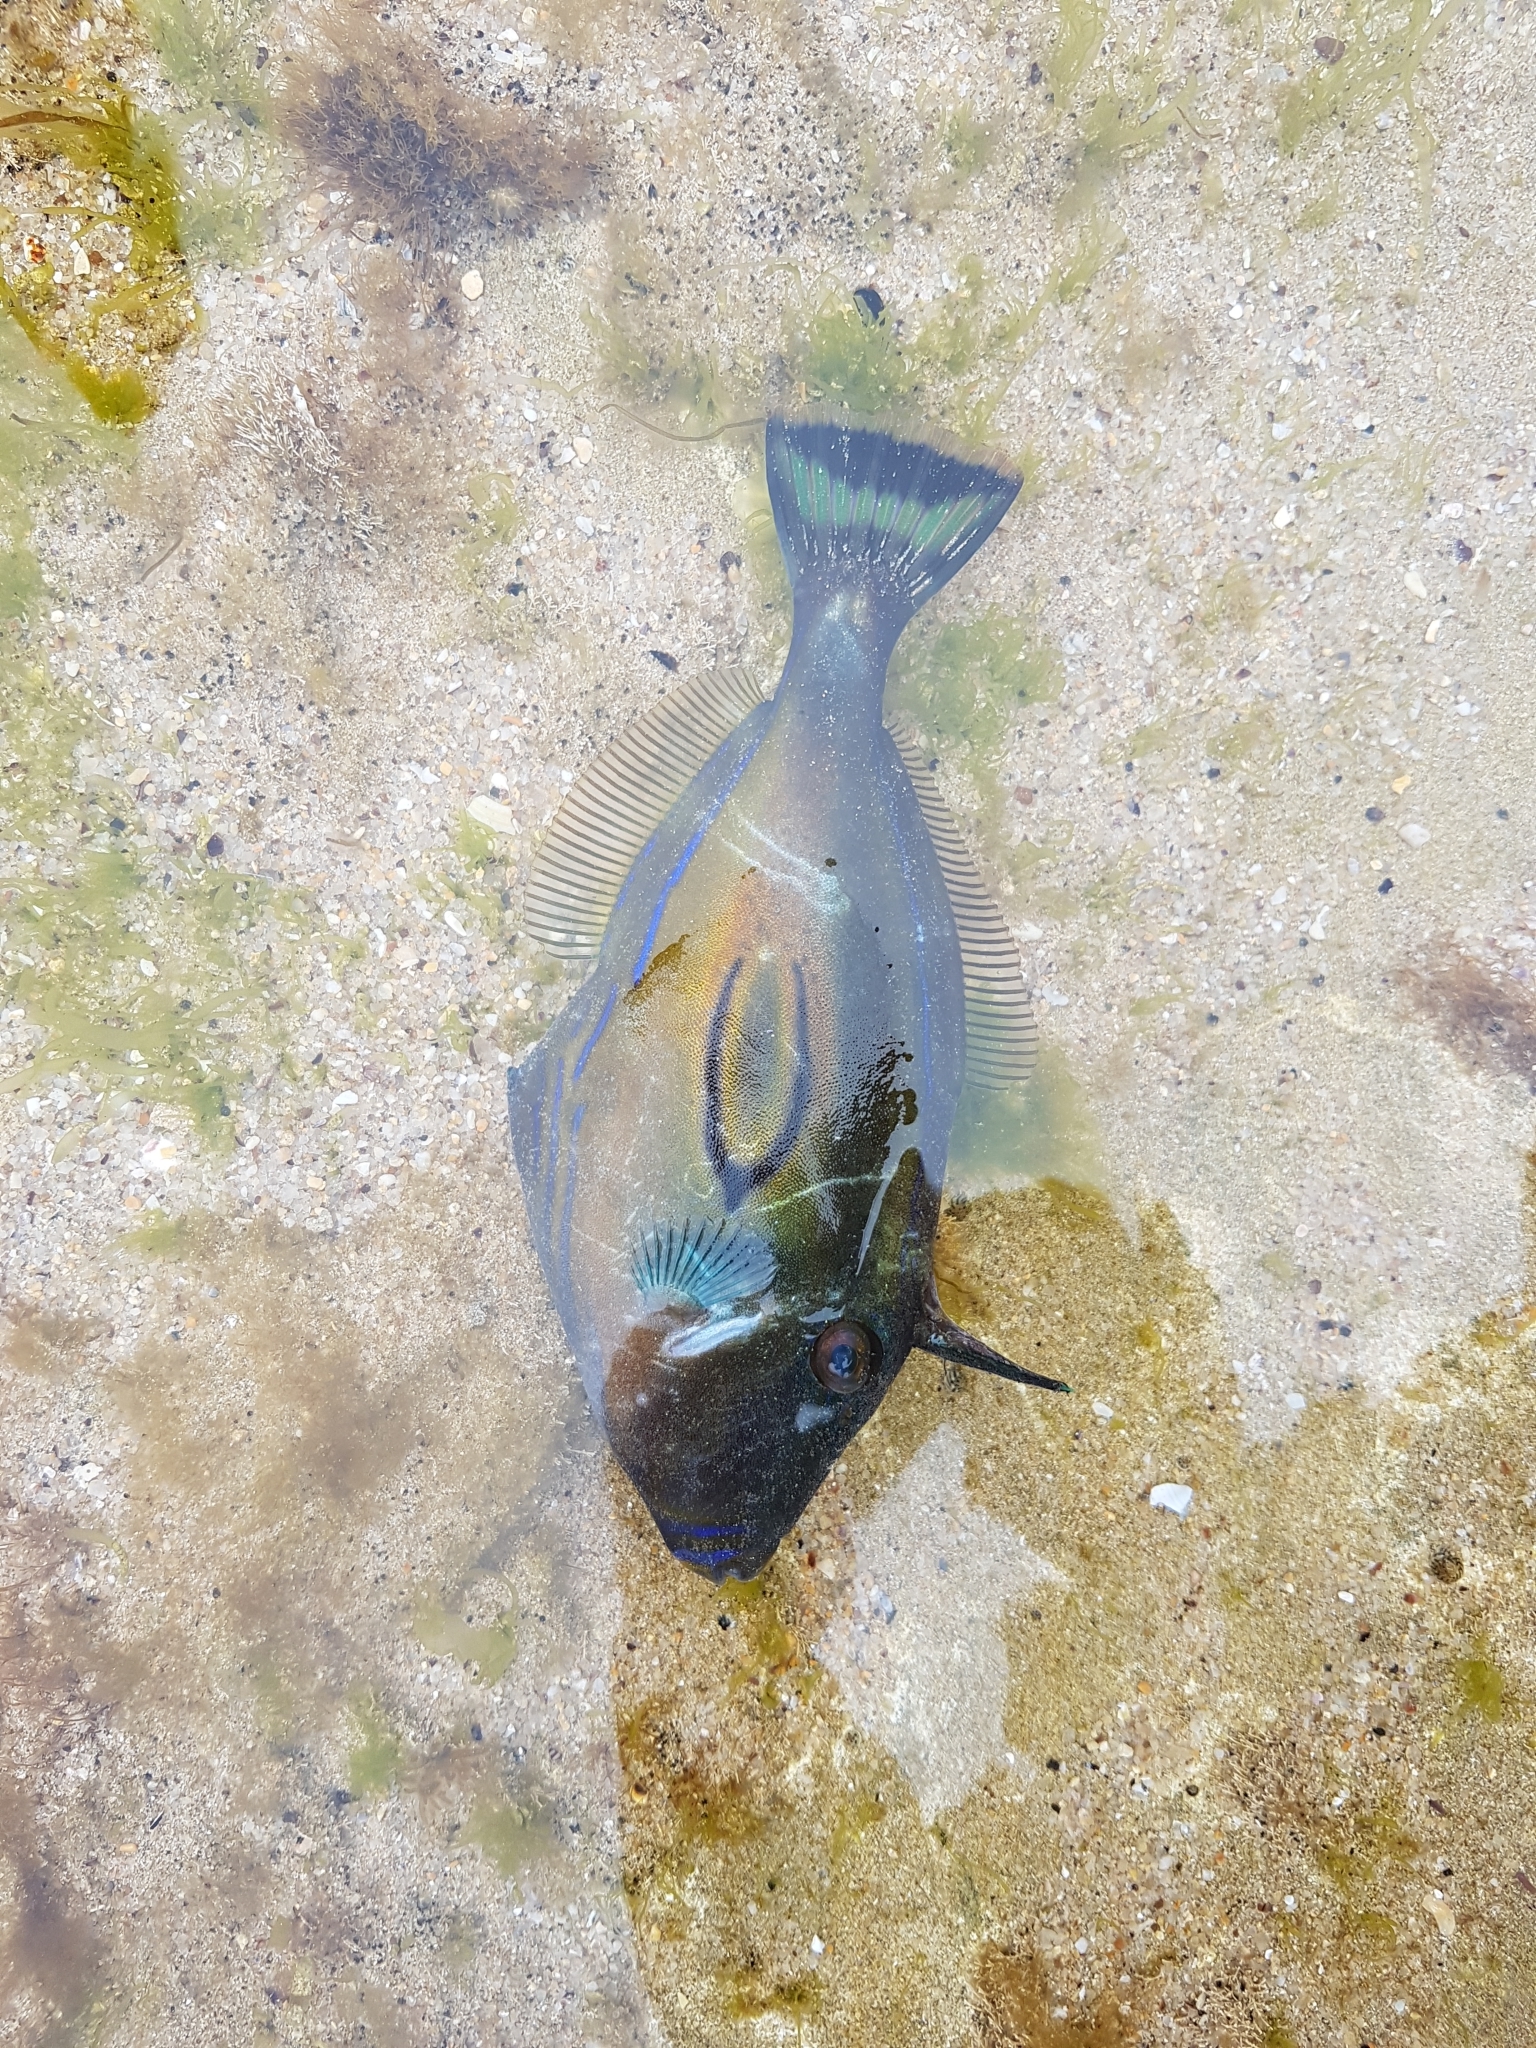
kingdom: Animalia
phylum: Chordata
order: Tetraodontiformes
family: Monacanthidae
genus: Meuschenia
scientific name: Meuschenia hippocrepis
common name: Horse-shoe leatherjacket
